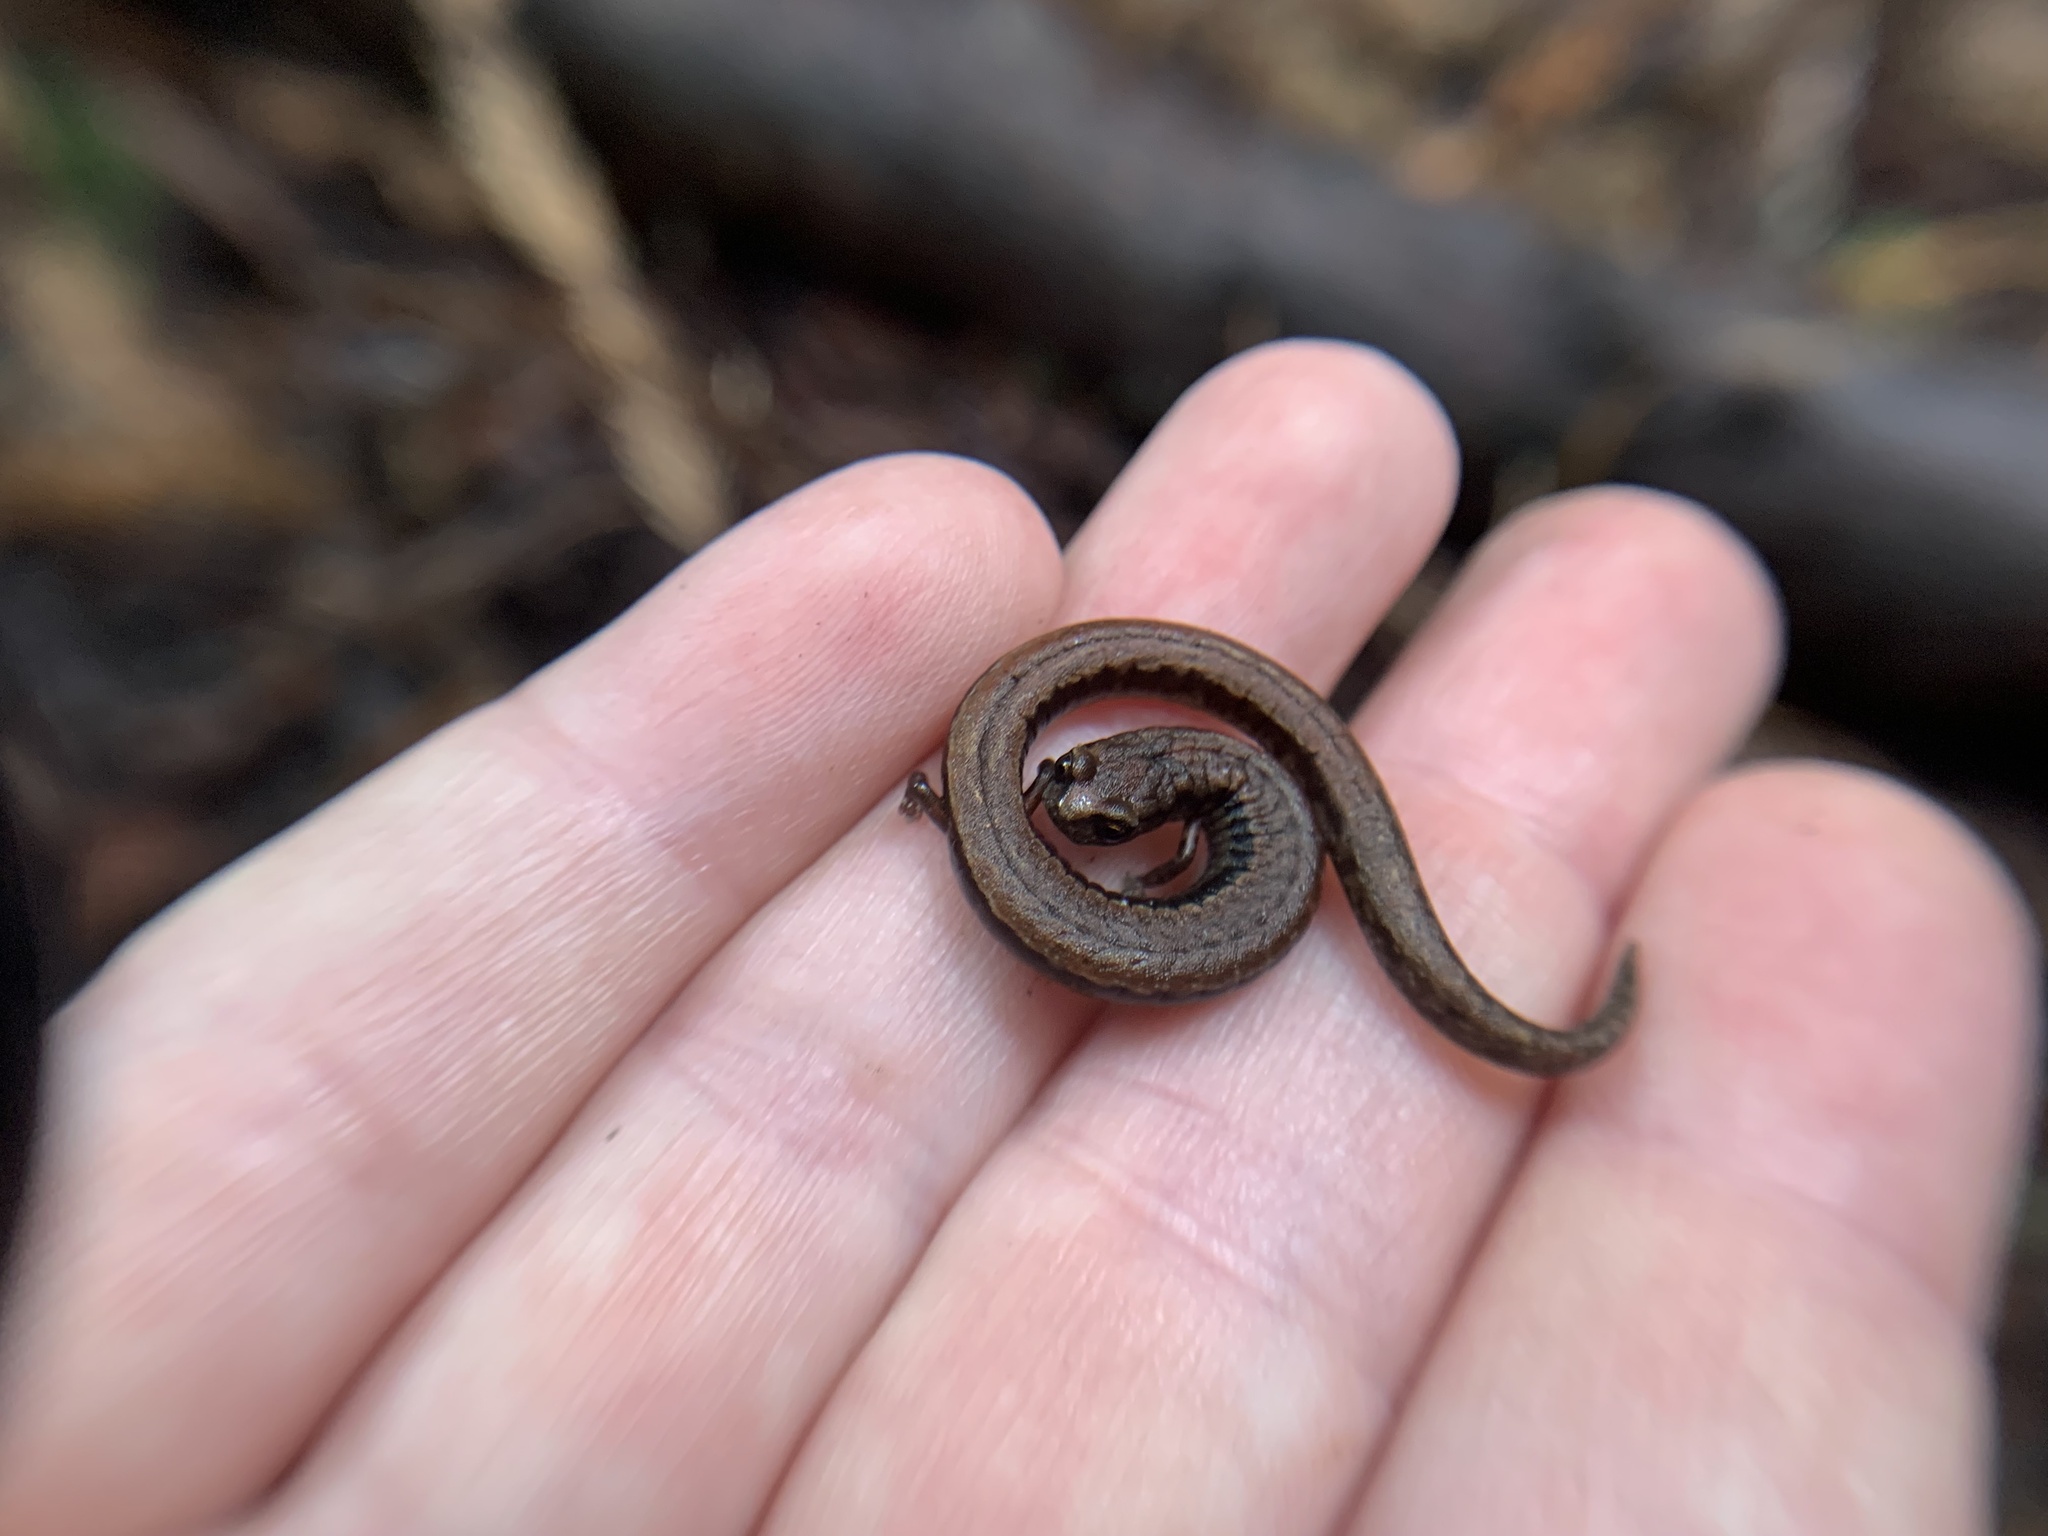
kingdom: Animalia
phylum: Chordata
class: Amphibia
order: Caudata
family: Plethodontidae
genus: Batrachoseps
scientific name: Batrachoseps attenuatus
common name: California slender salamander
